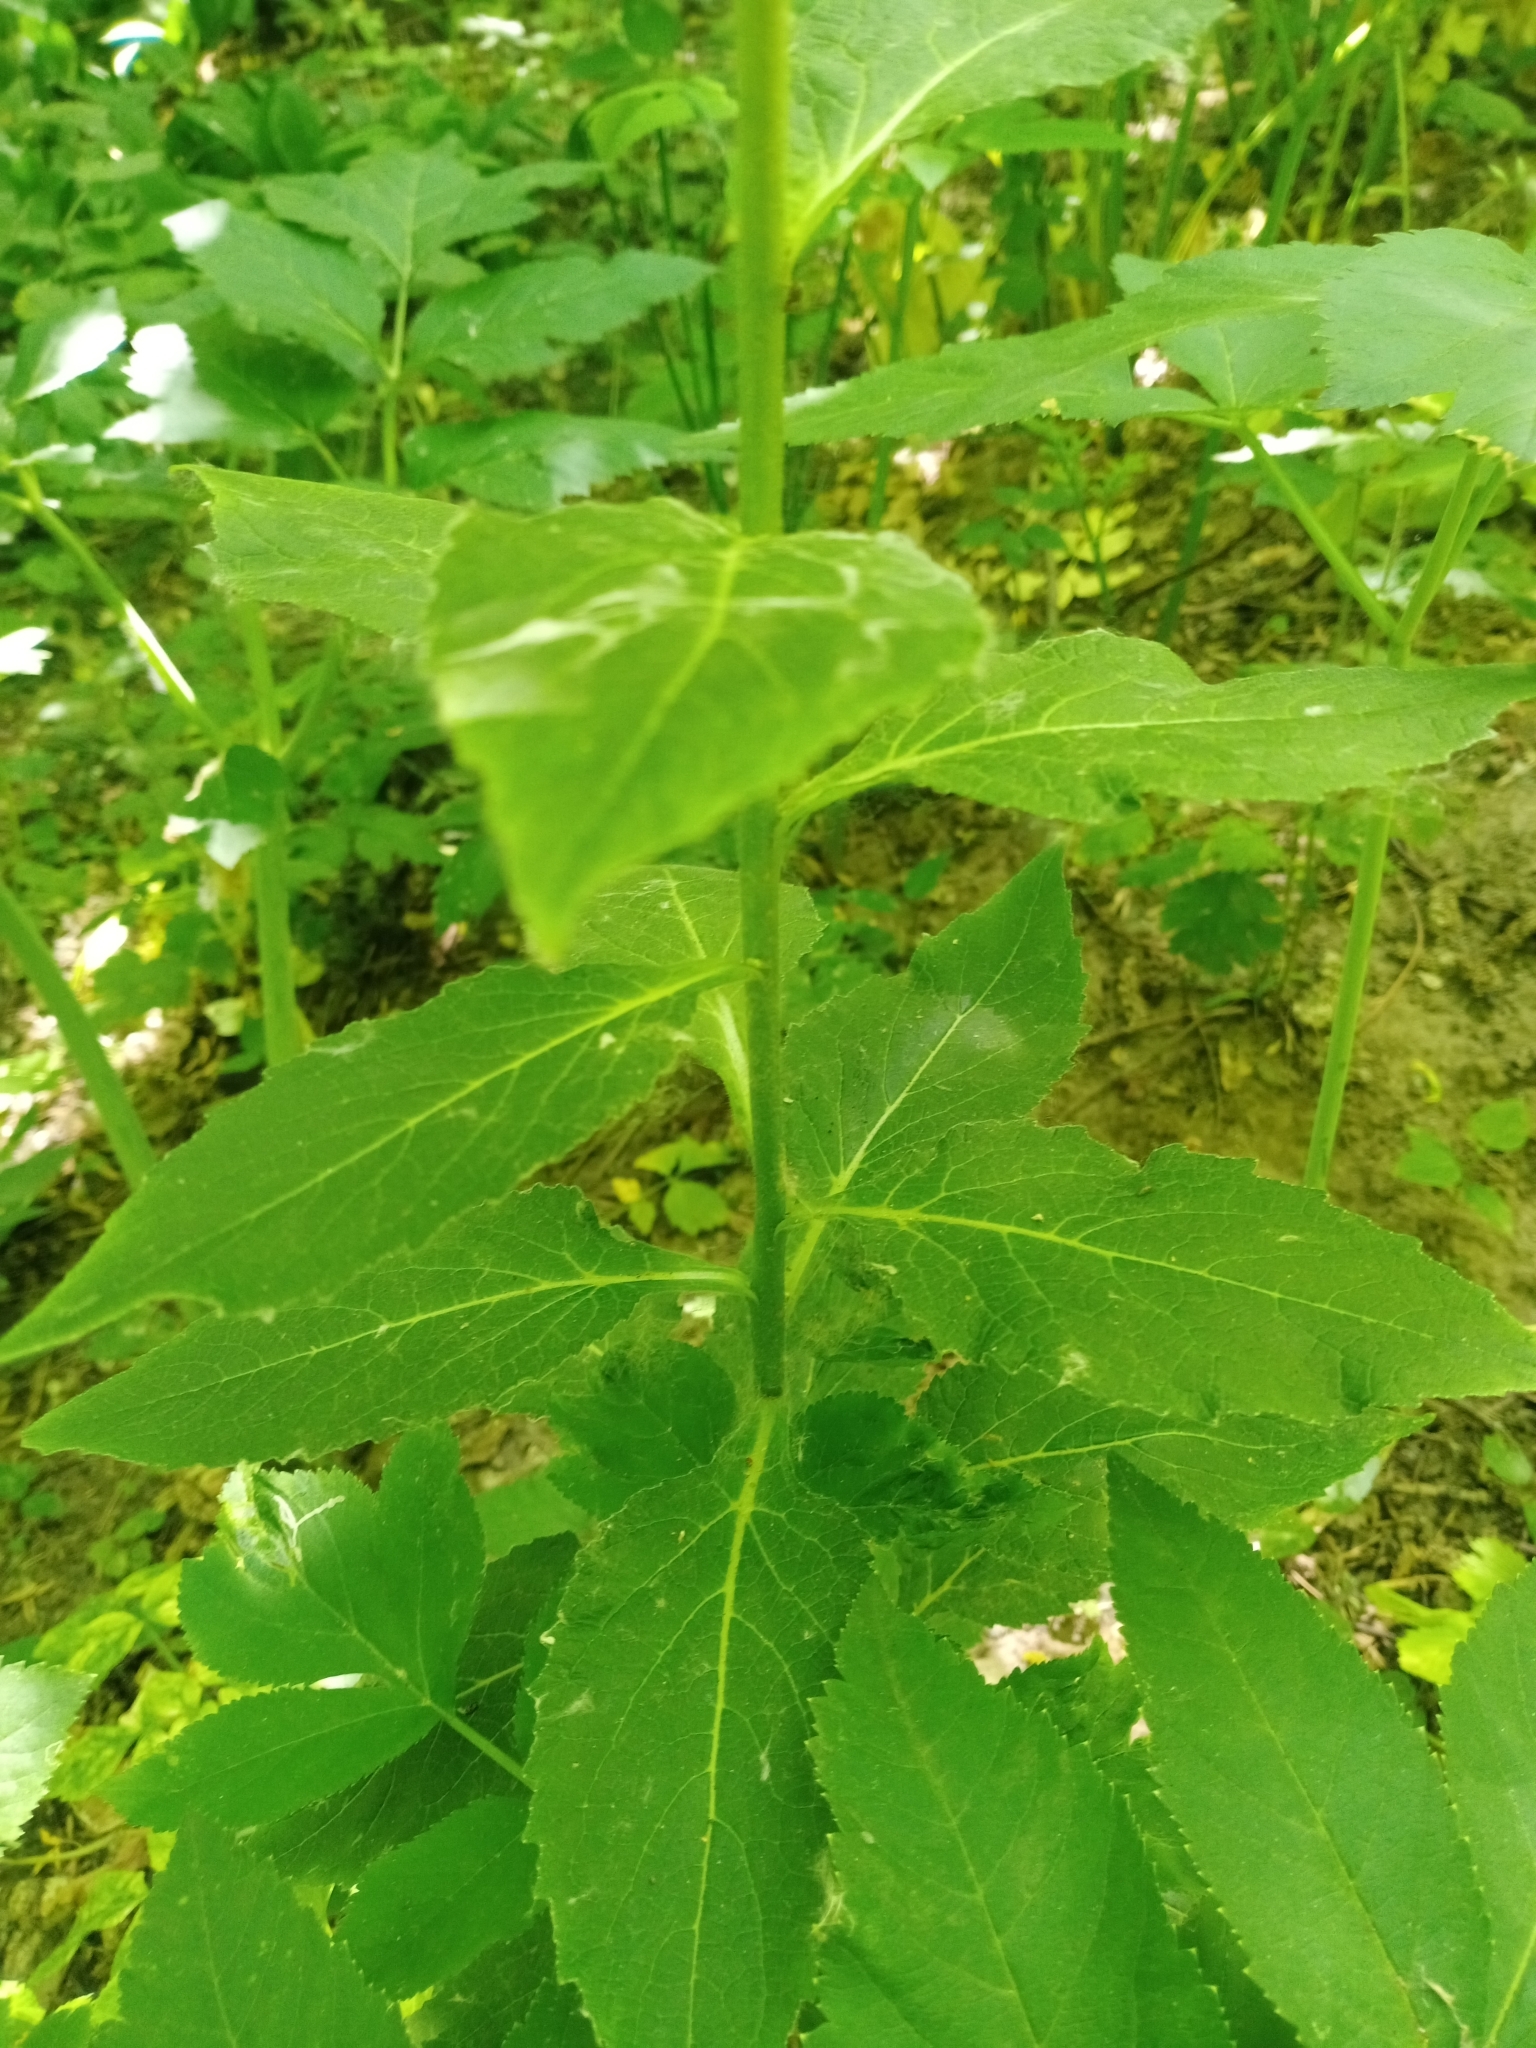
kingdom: Plantae
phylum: Tracheophyta
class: Magnoliopsida
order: Asterales
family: Campanulaceae
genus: Campanula
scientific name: Campanula latifolia
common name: Giant bellflower
